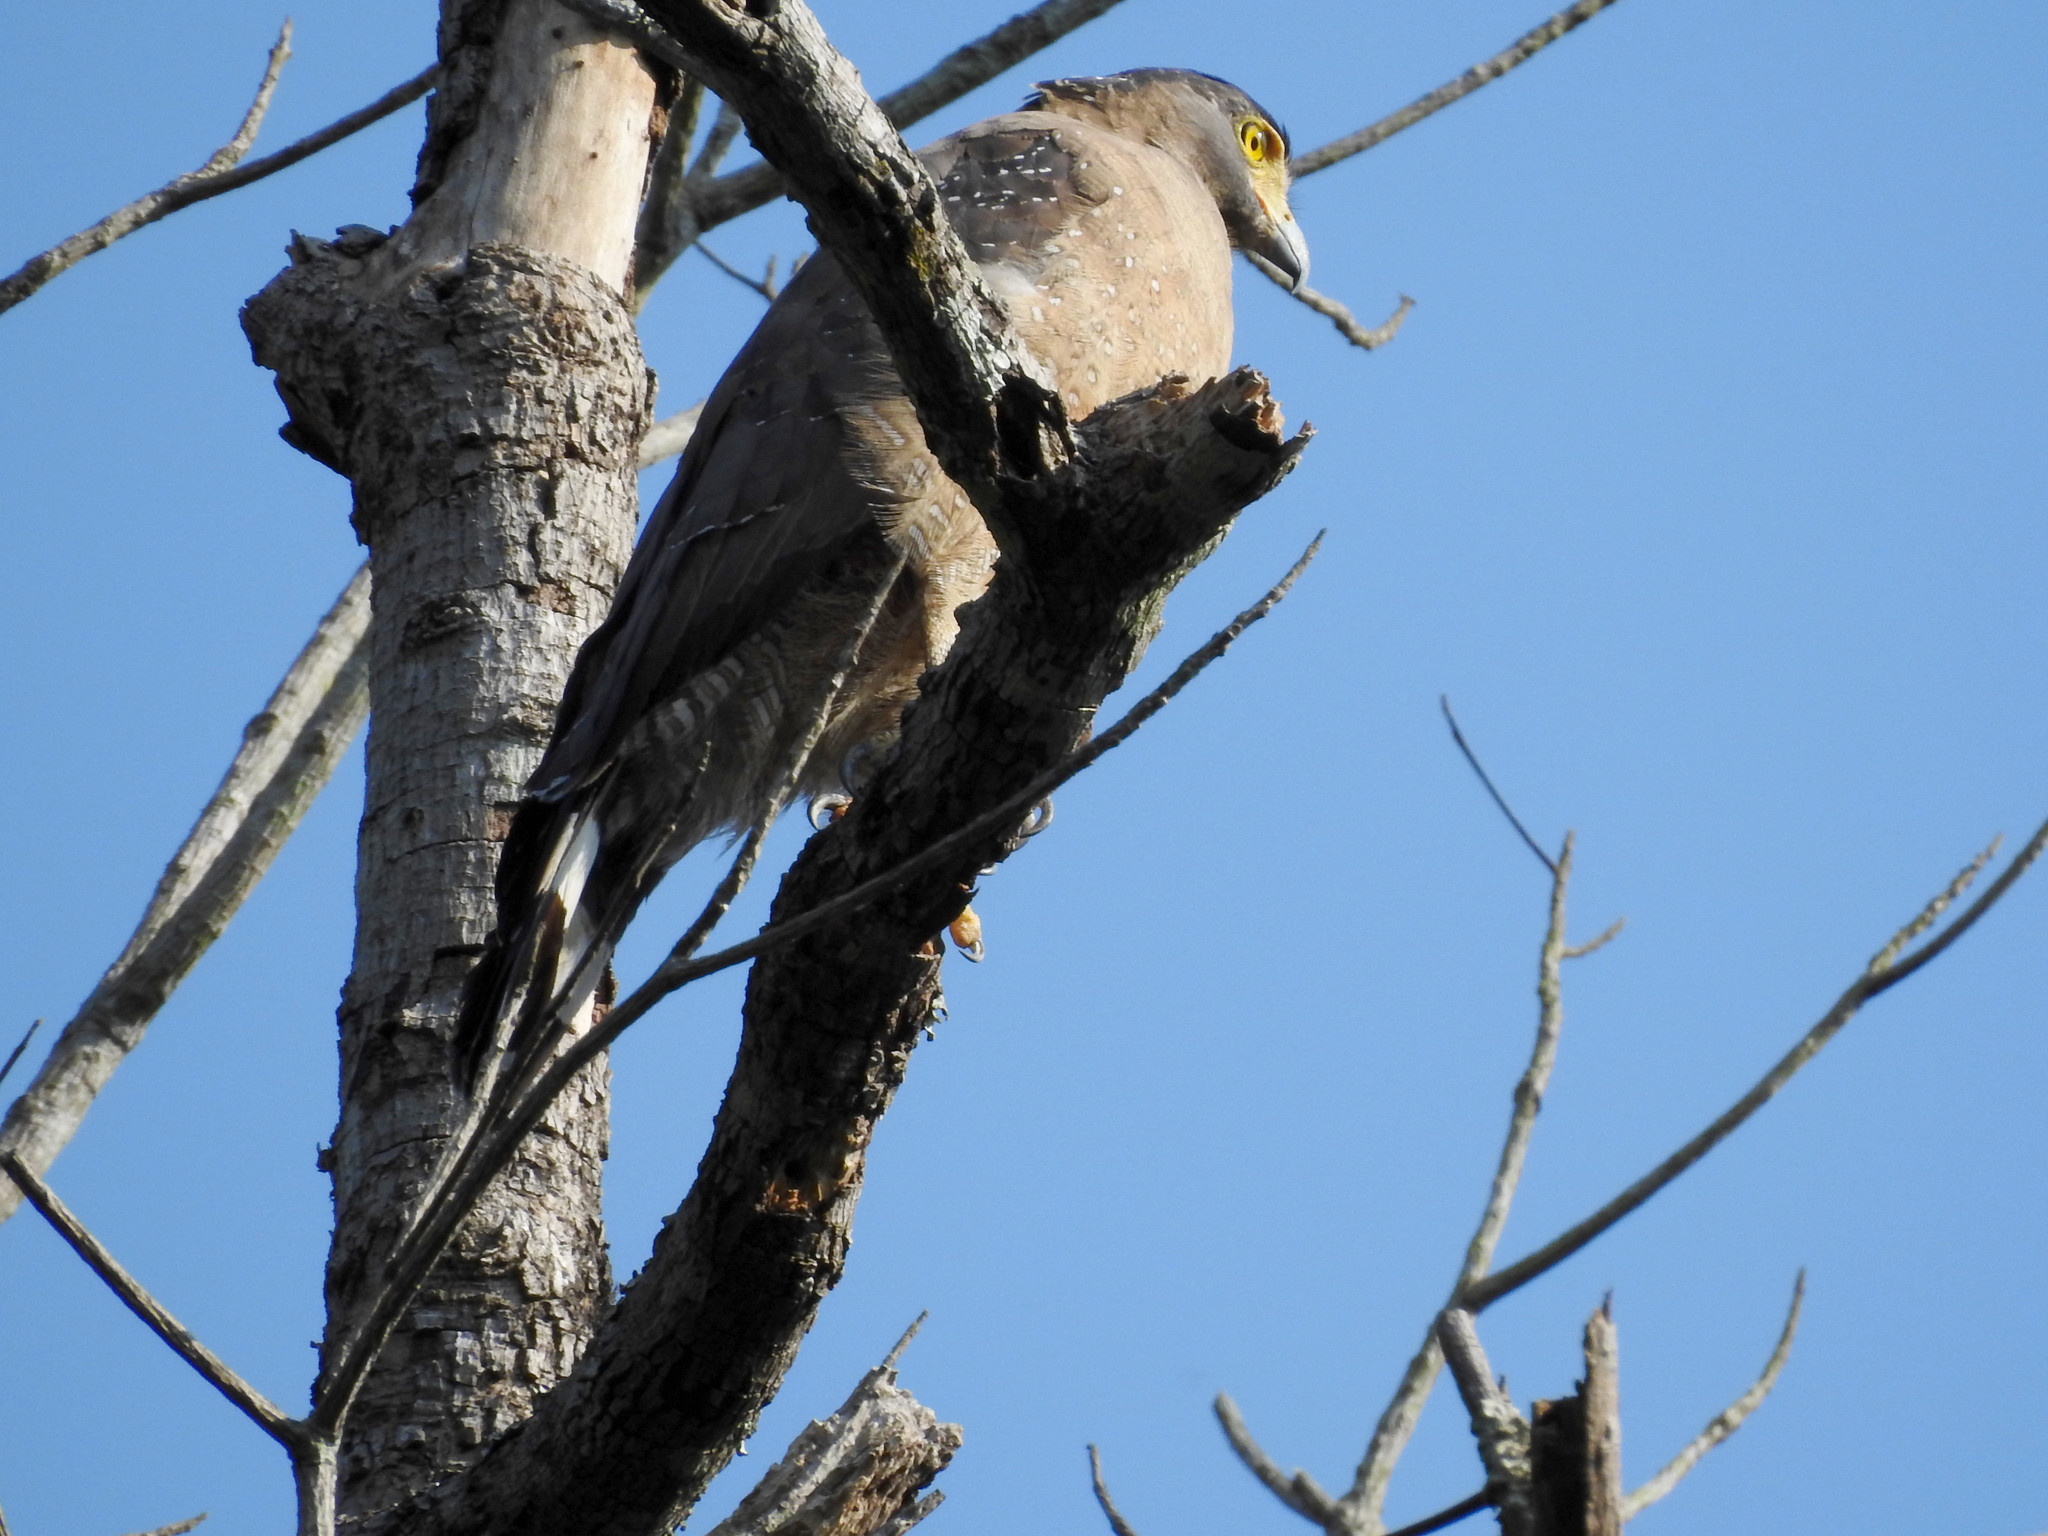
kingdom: Animalia
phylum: Chordata
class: Aves
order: Accipitriformes
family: Accipitridae
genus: Spilornis
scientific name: Spilornis cheela
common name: Crested serpent eagle
